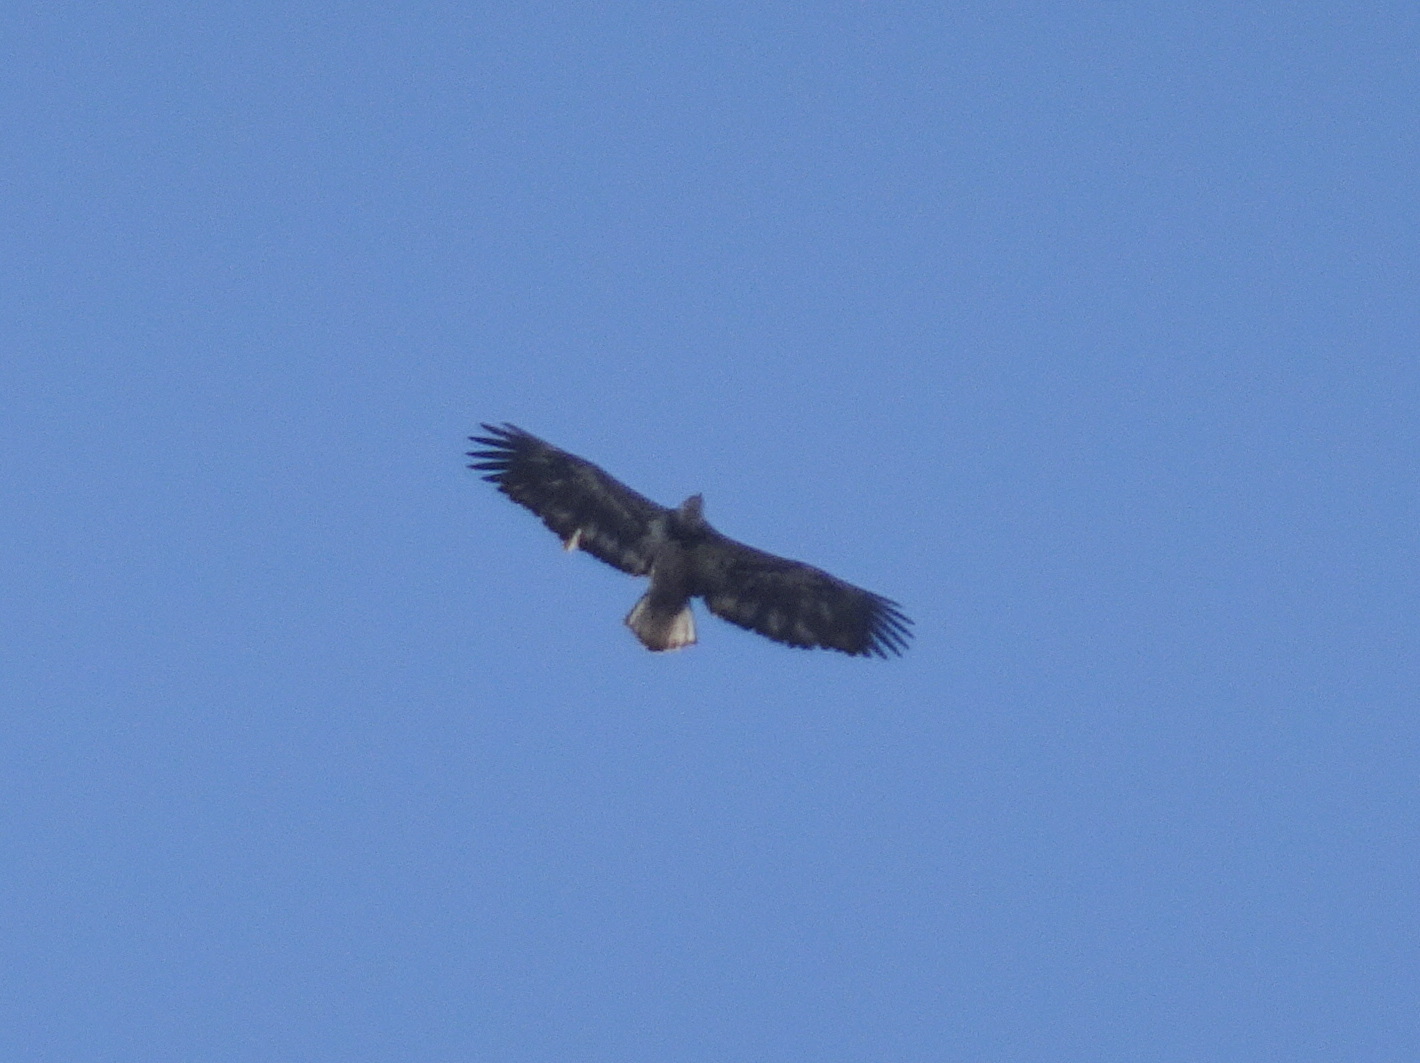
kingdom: Animalia
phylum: Chordata
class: Aves
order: Accipitriformes
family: Accipitridae
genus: Haliaeetus
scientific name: Haliaeetus leucocephalus
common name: Bald eagle
